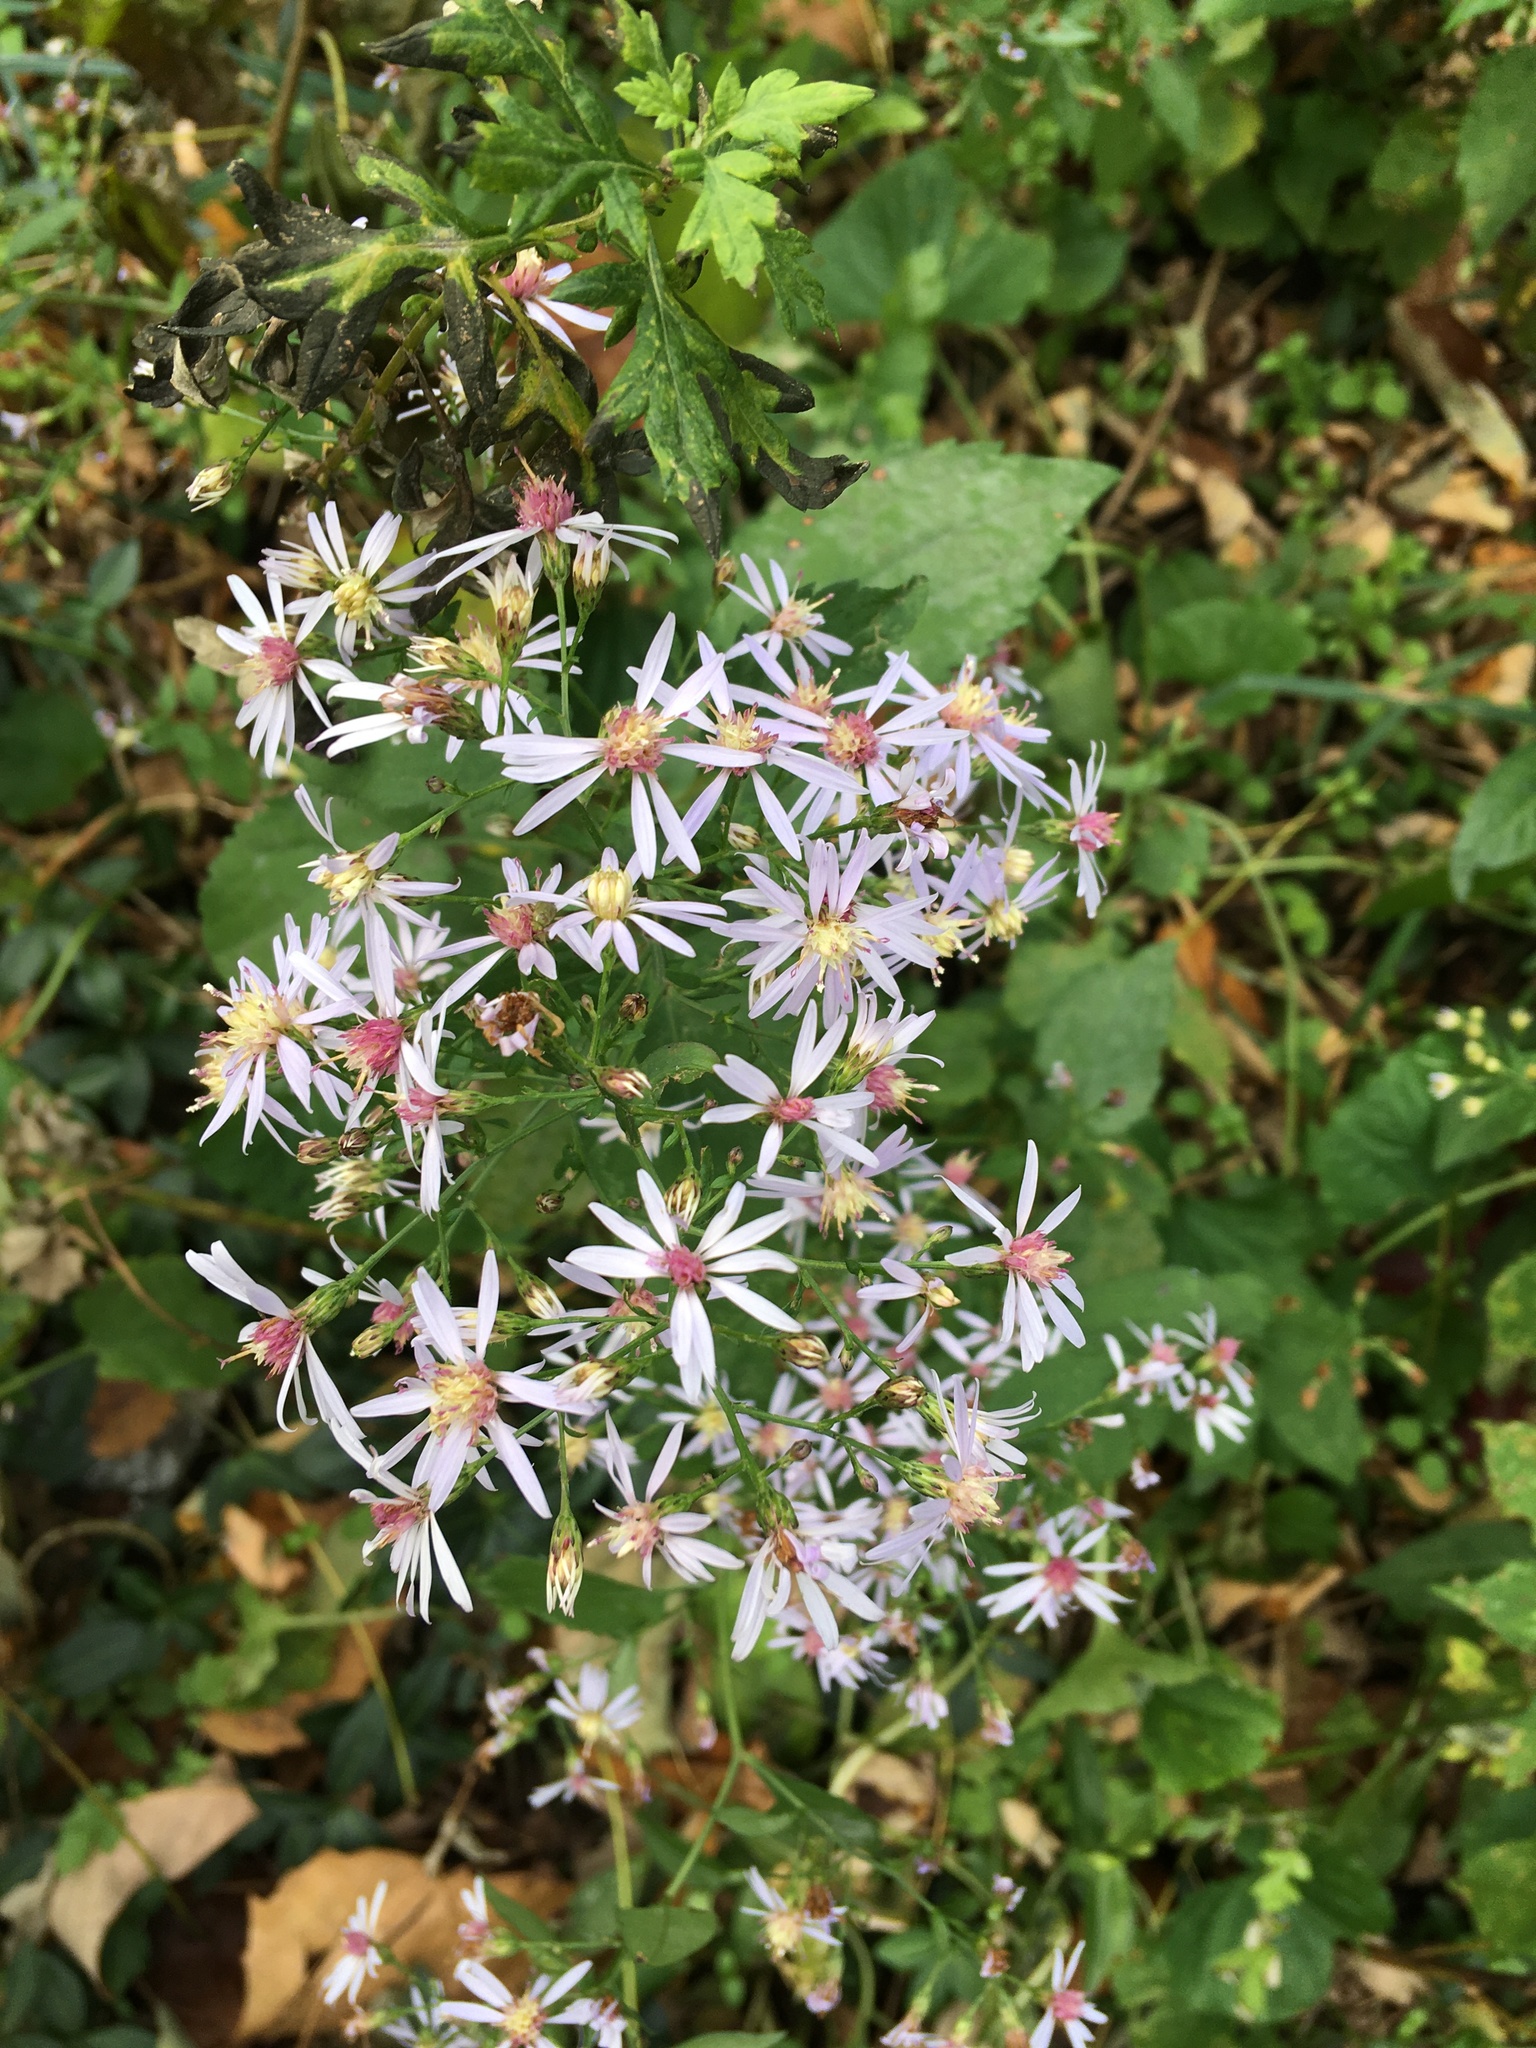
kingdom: Plantae
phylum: Tracheophyta
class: Magnoliopsida
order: Asterales
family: Asteraceae
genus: Symphyotrichum
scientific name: Symphyotrichum cordifolium
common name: Beeweed
